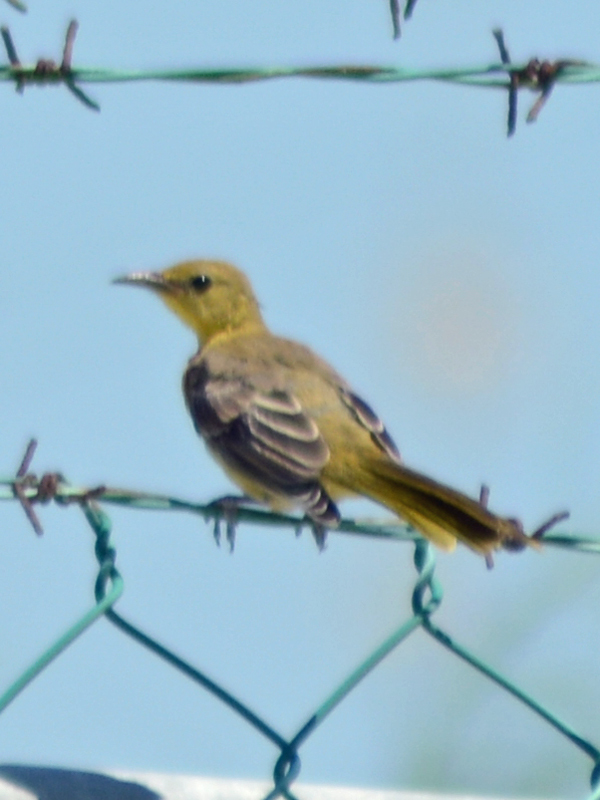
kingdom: Animalia
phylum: Chordata
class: Aves
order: Passeriformes
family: Icteridae
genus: Icterus
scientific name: Icterus cucullatus
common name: Hooded oriole
